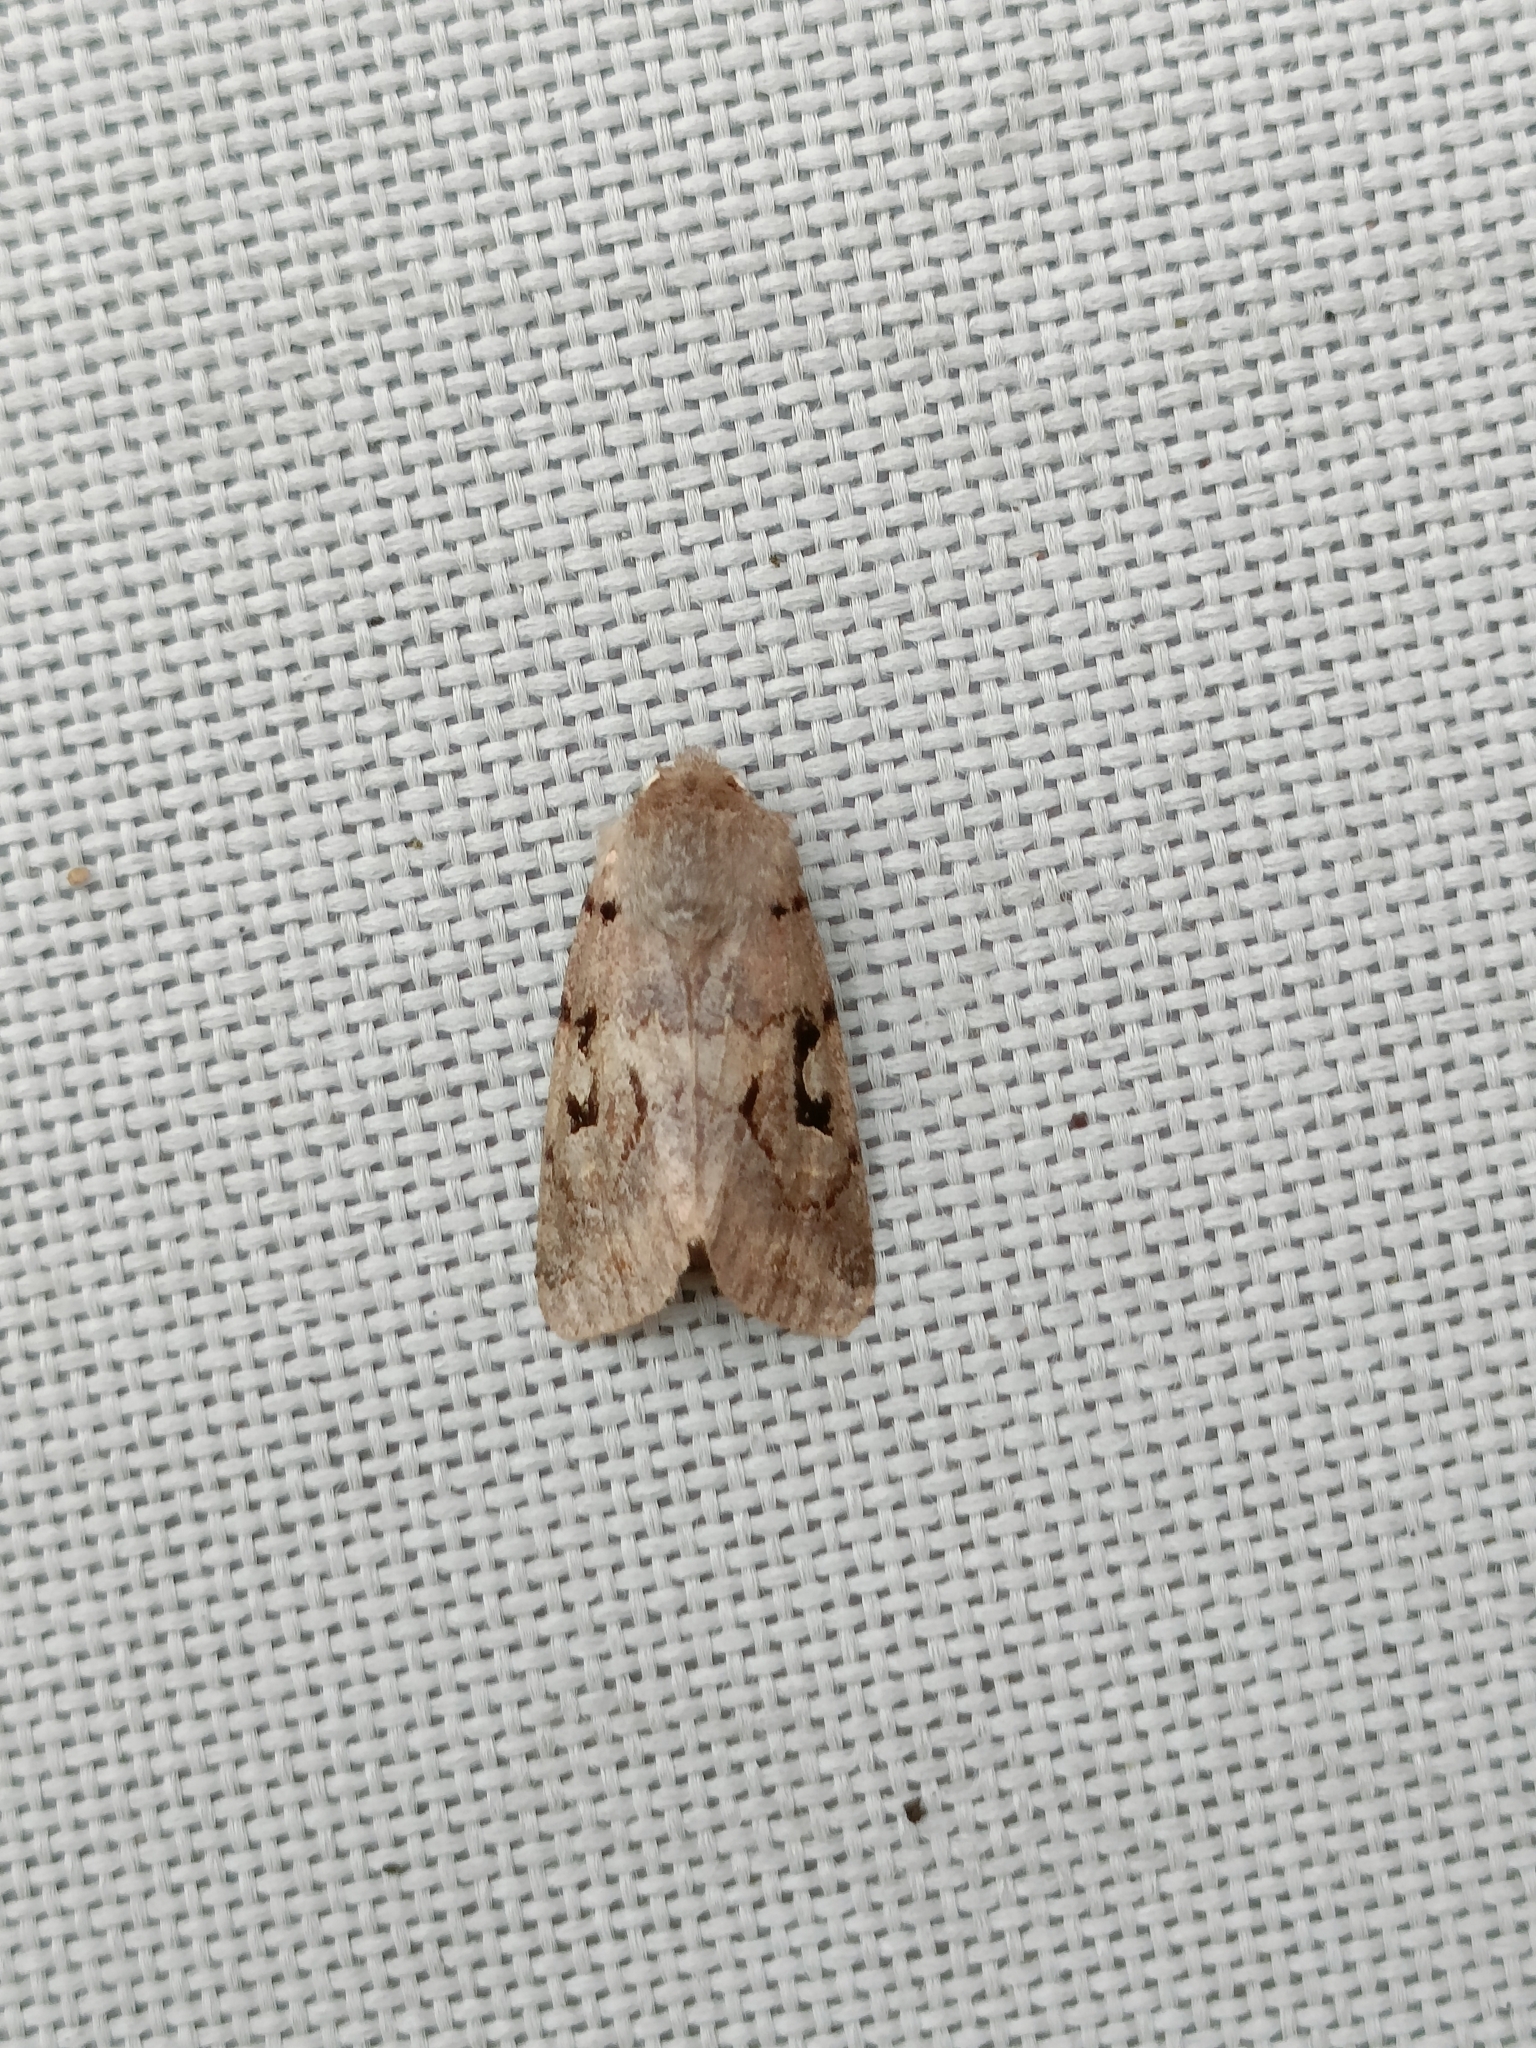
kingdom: Animalia
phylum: Arthropoda
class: Insecta
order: Lepidoptera
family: Noctuidae
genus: Orthosia
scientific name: Orthosia gothica
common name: Hebrew character
